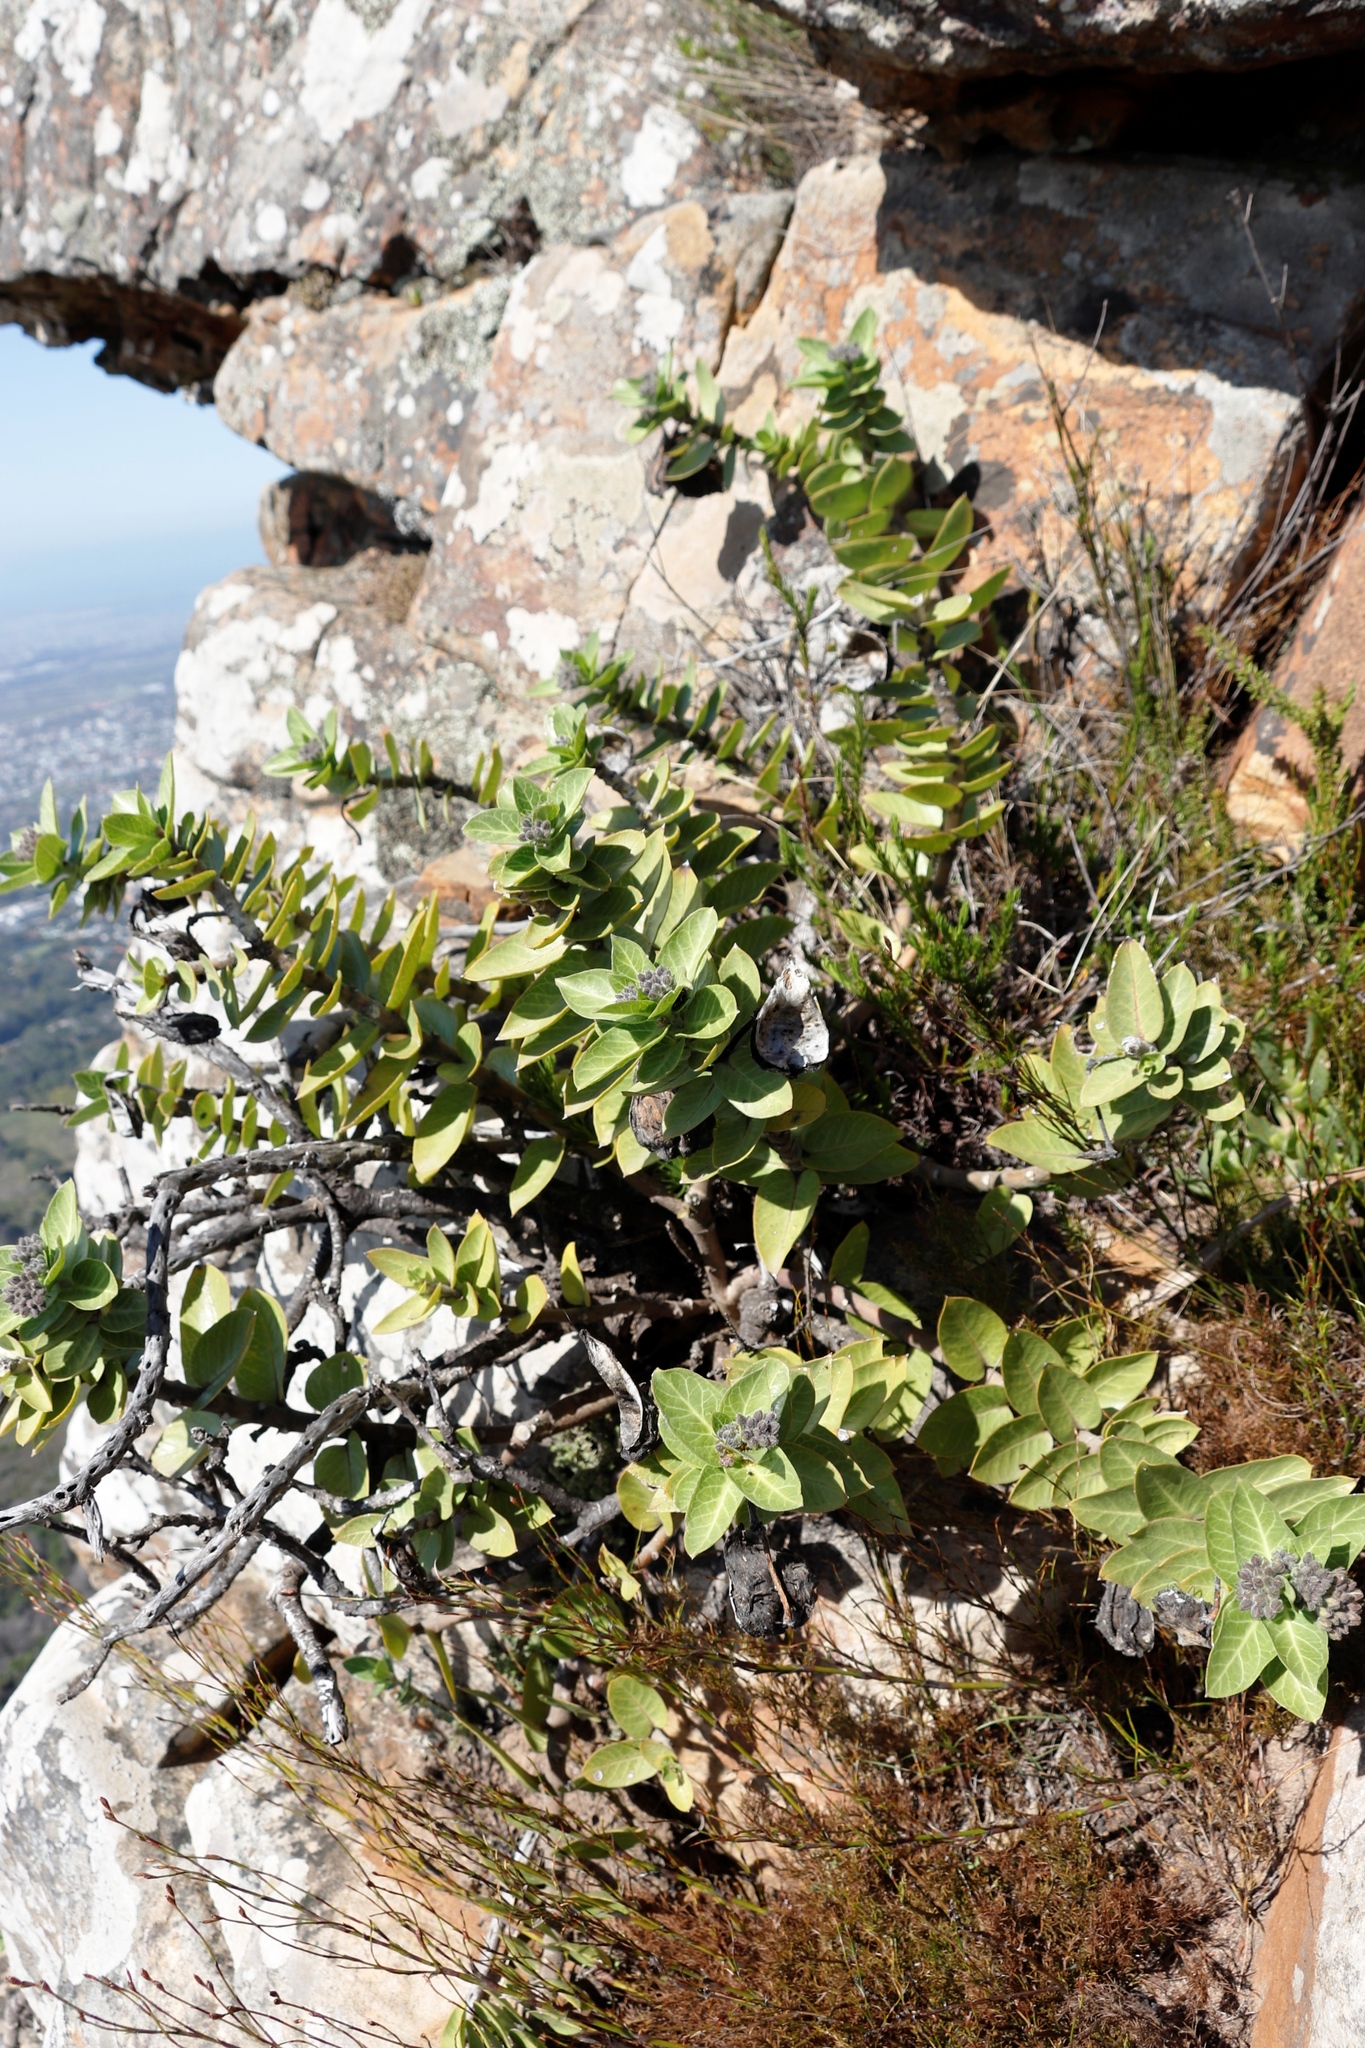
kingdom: Plantae
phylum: Tracheophyta
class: Magnoliopsida
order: Gentianales
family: Apocynaceae
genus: Gomphocarpus
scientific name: Gomphocarpus cancellatus
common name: Wild cotton
